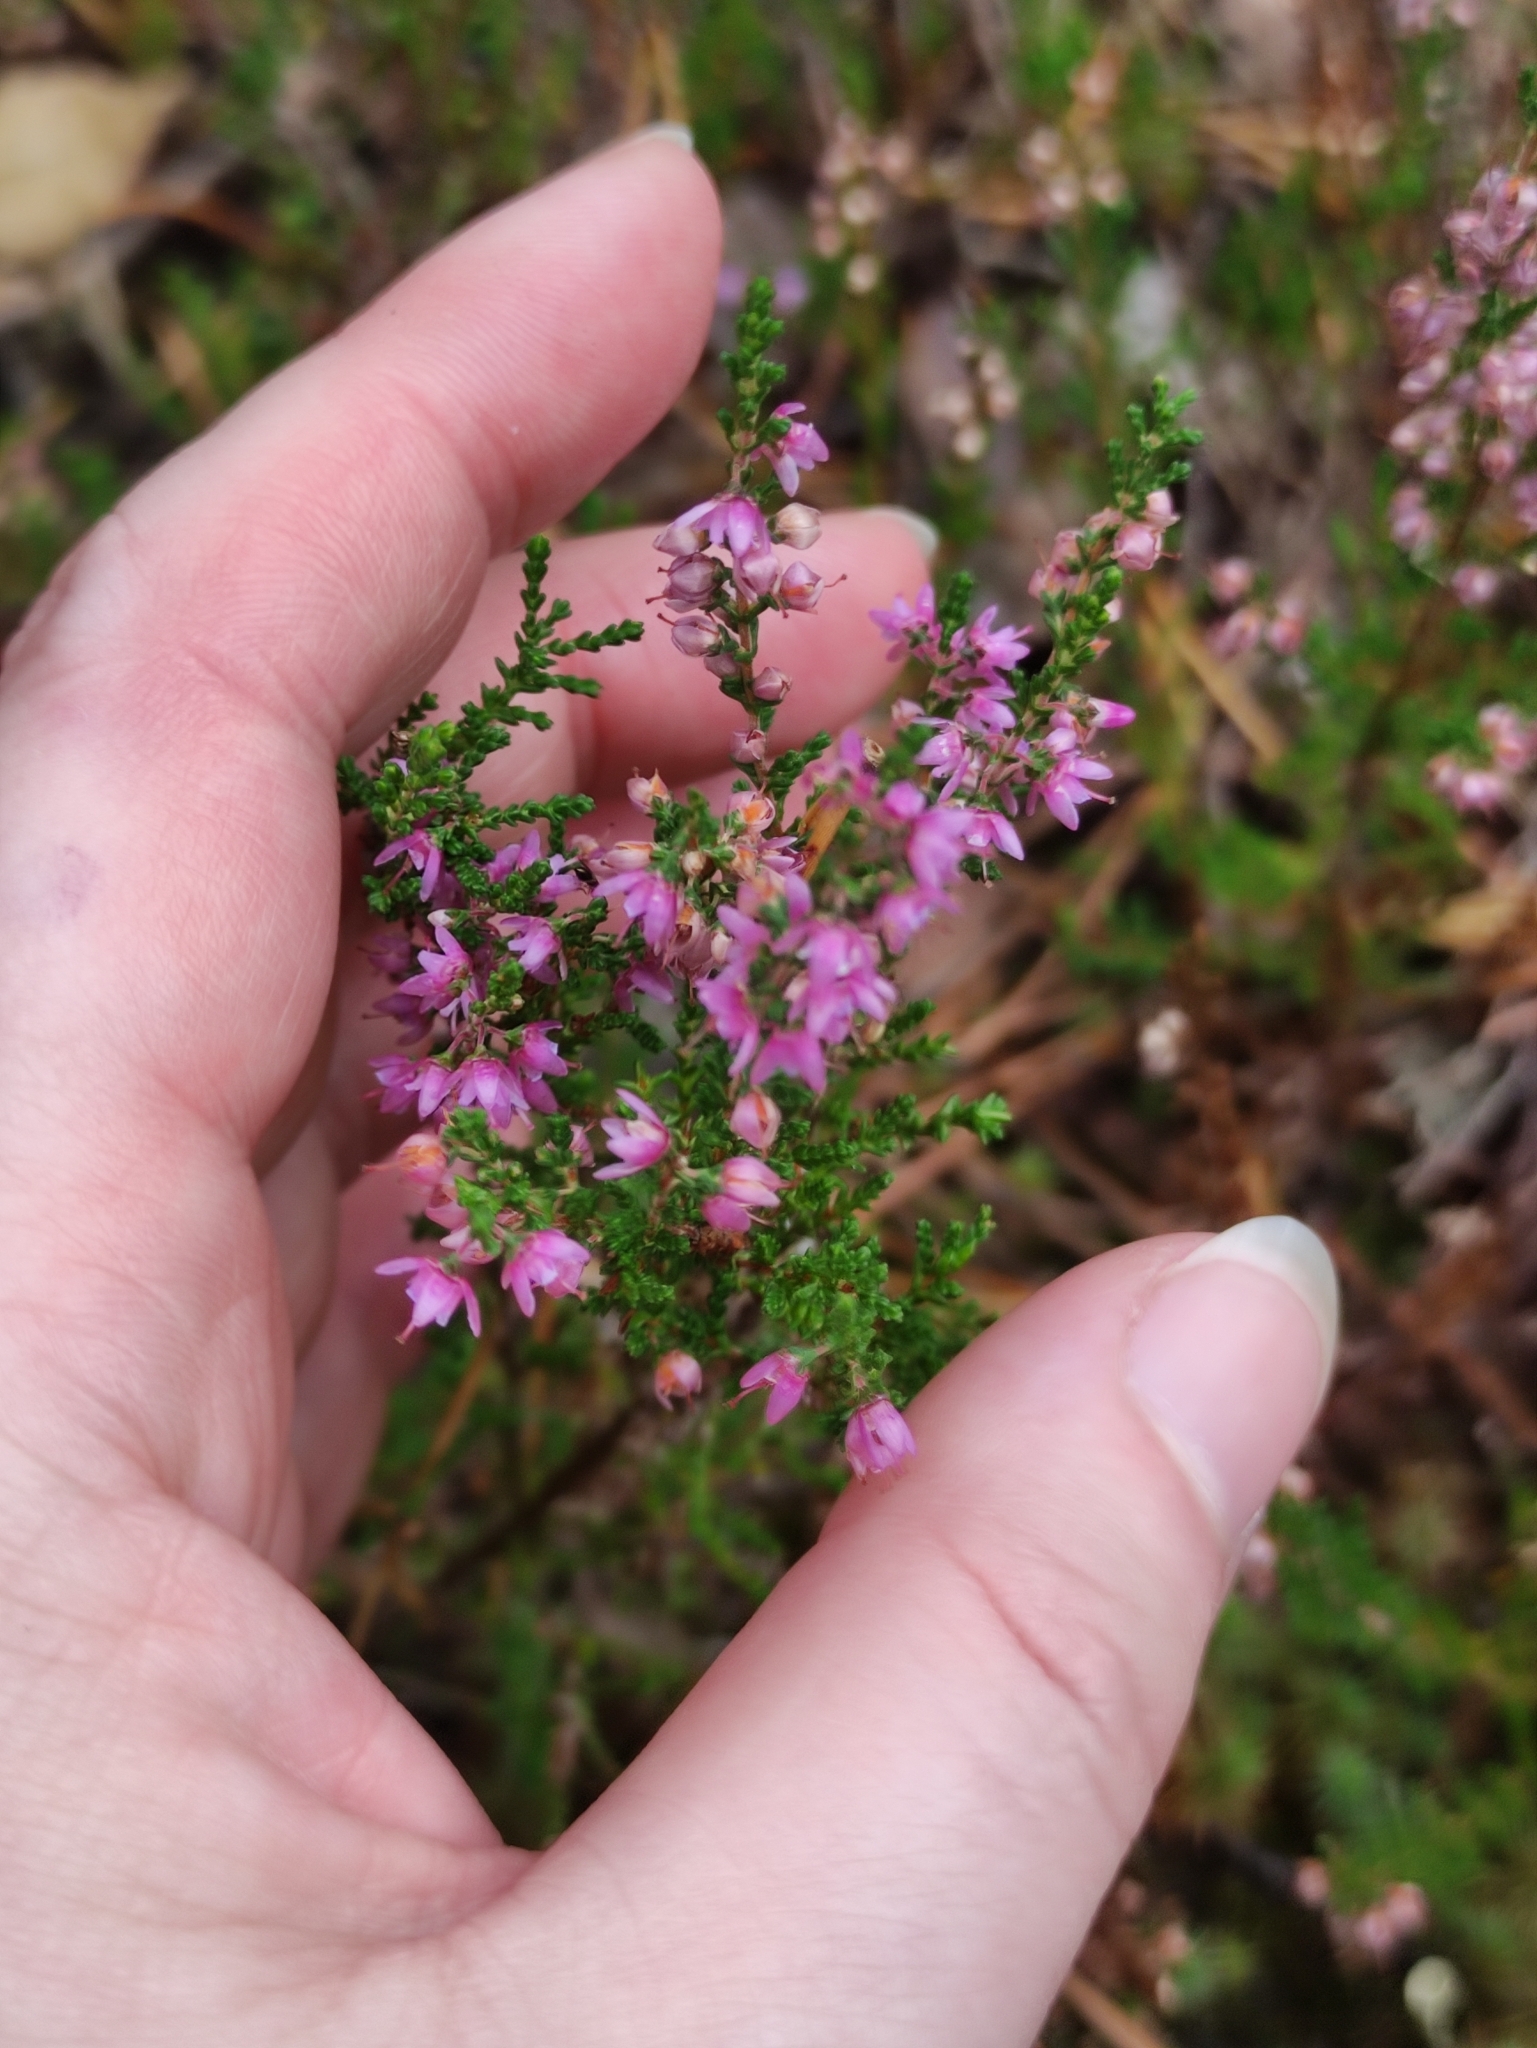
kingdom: Plantae
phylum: Tracheophyta
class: Magnoliopsida
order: Ericales
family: Ericaceae
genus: Calluna
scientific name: Calluna vulgaris
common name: Heather
